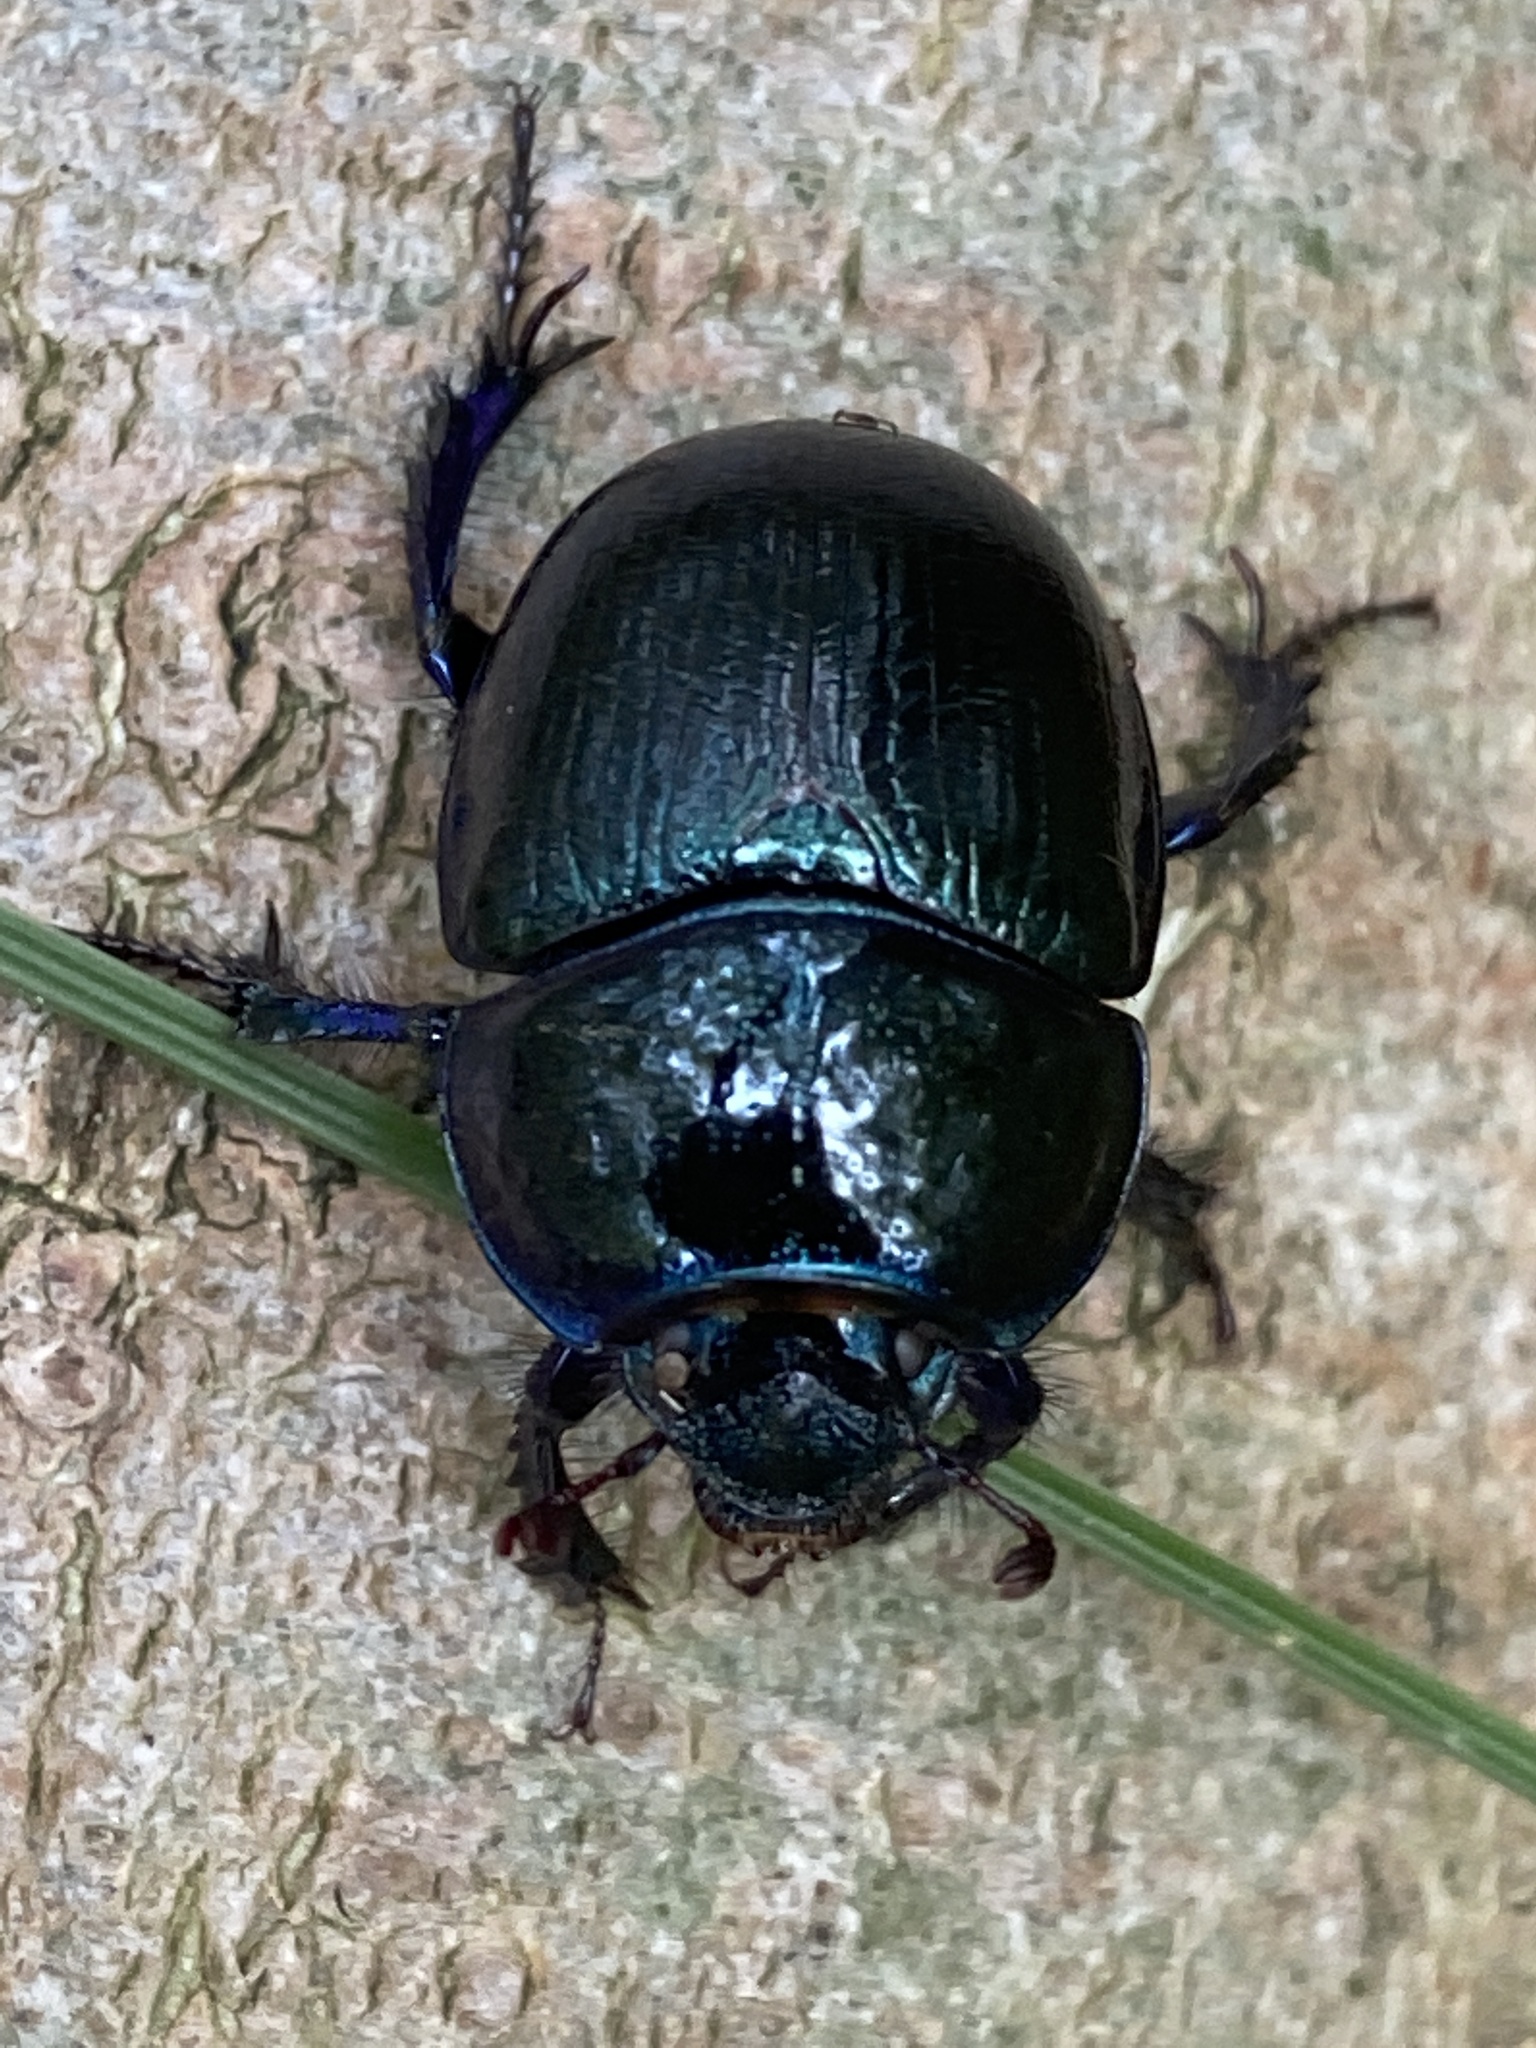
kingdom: Animalia
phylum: Arthropoda
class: Insecta
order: Coleoptera
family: Geotrupidae
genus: Anoplotrupes
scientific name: Anoplotrupes stercorosus
